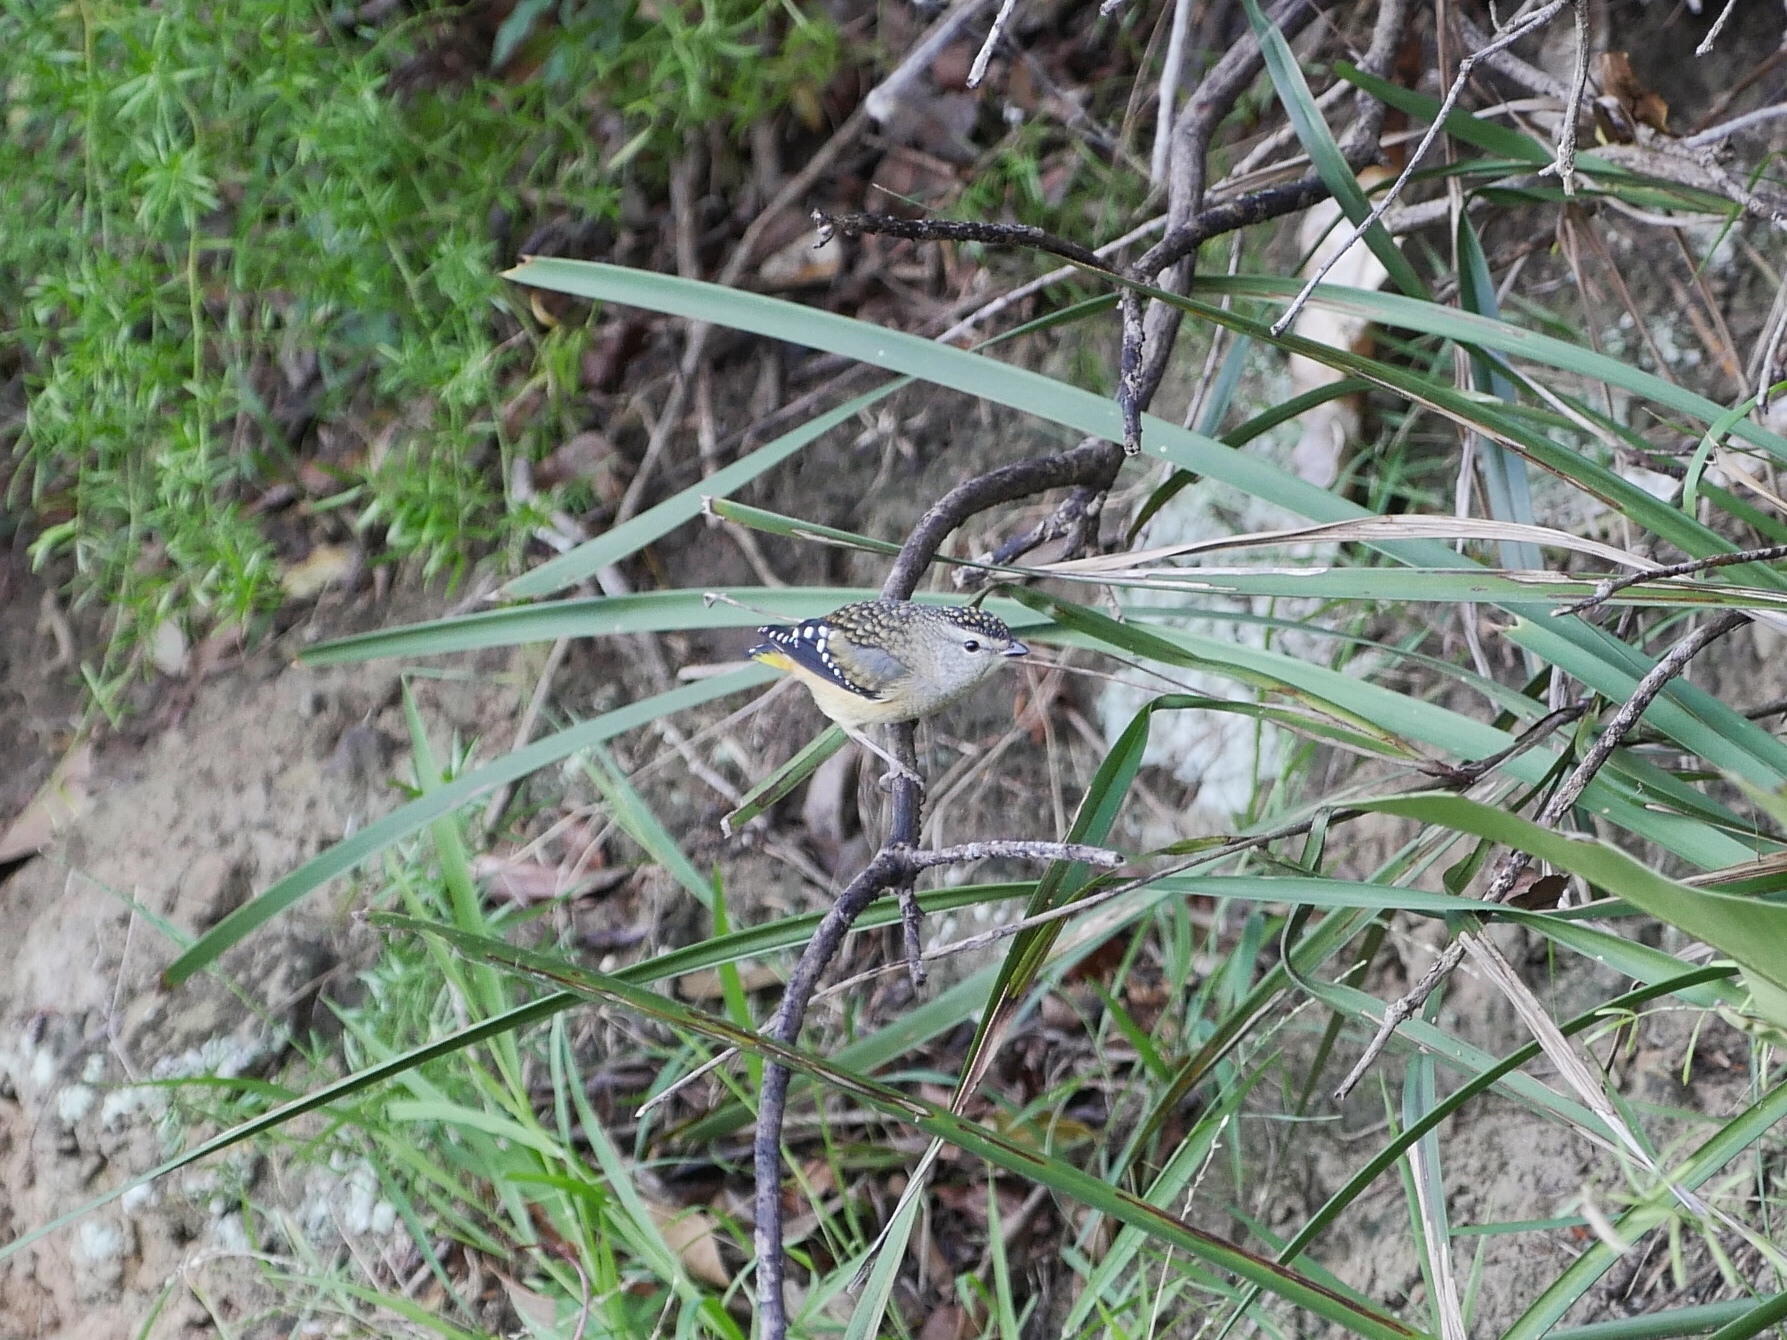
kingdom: Animalia
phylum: Chordata
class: Aves
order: Passeriformes
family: Pardalotidae
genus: Pardalotus
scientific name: Pardalotus punctatus
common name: Spotted pardalote
